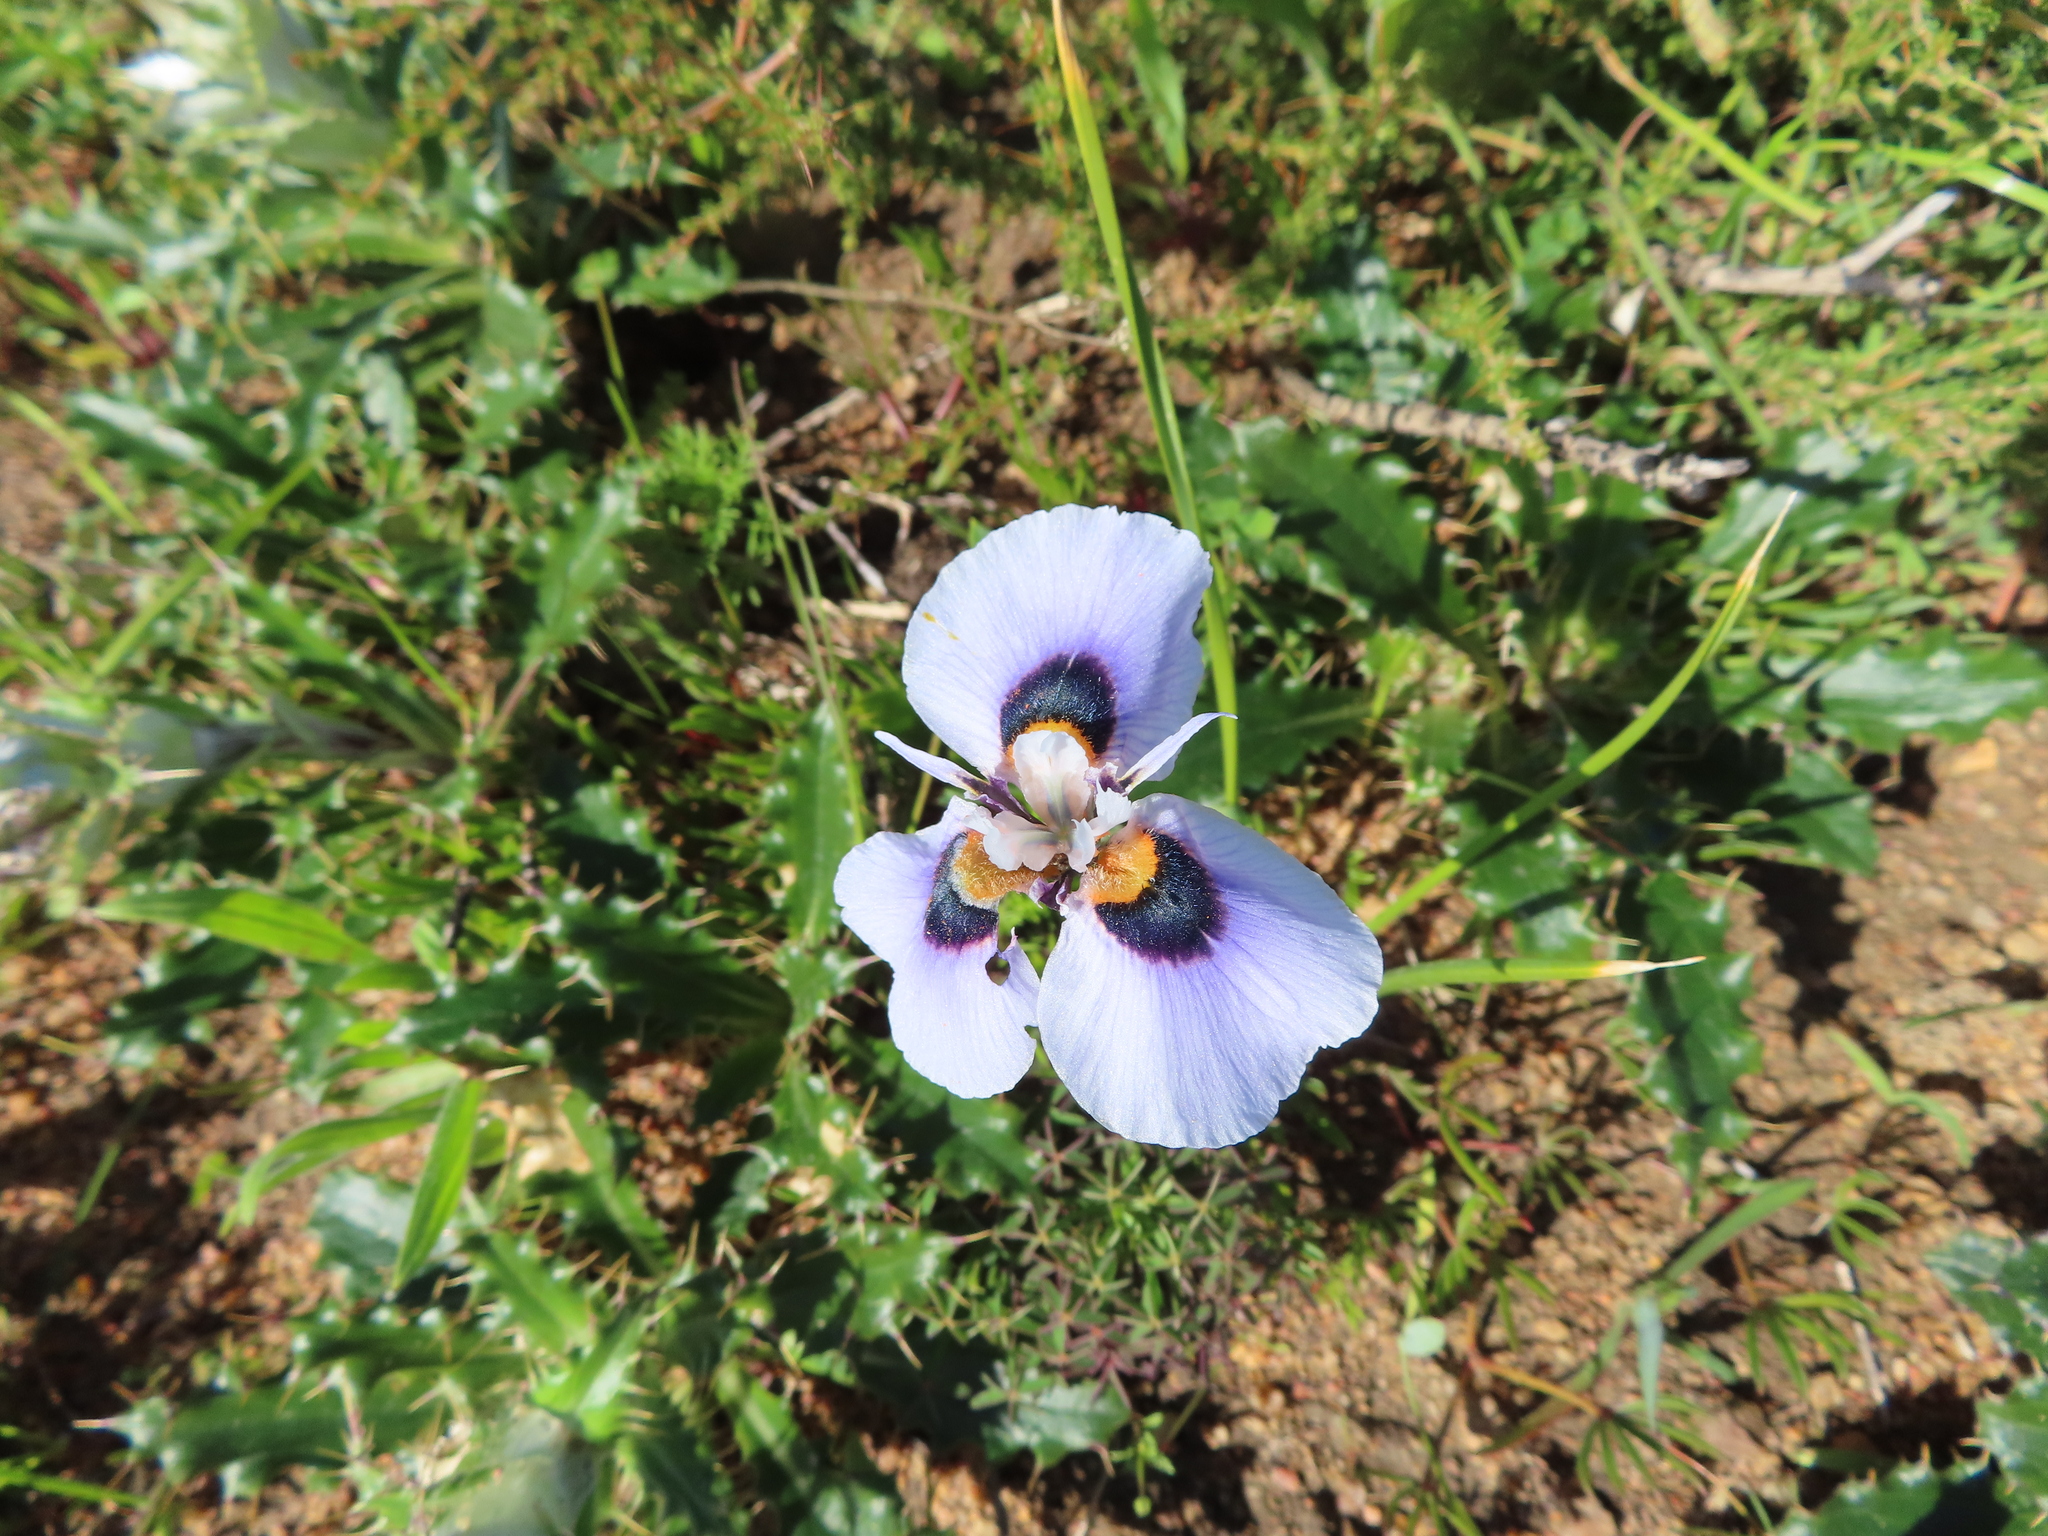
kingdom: Plantae
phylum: Tracheophyta
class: Liliopsida
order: Asparagales
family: Iridaceae
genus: Moraea
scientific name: Moraea villosa
